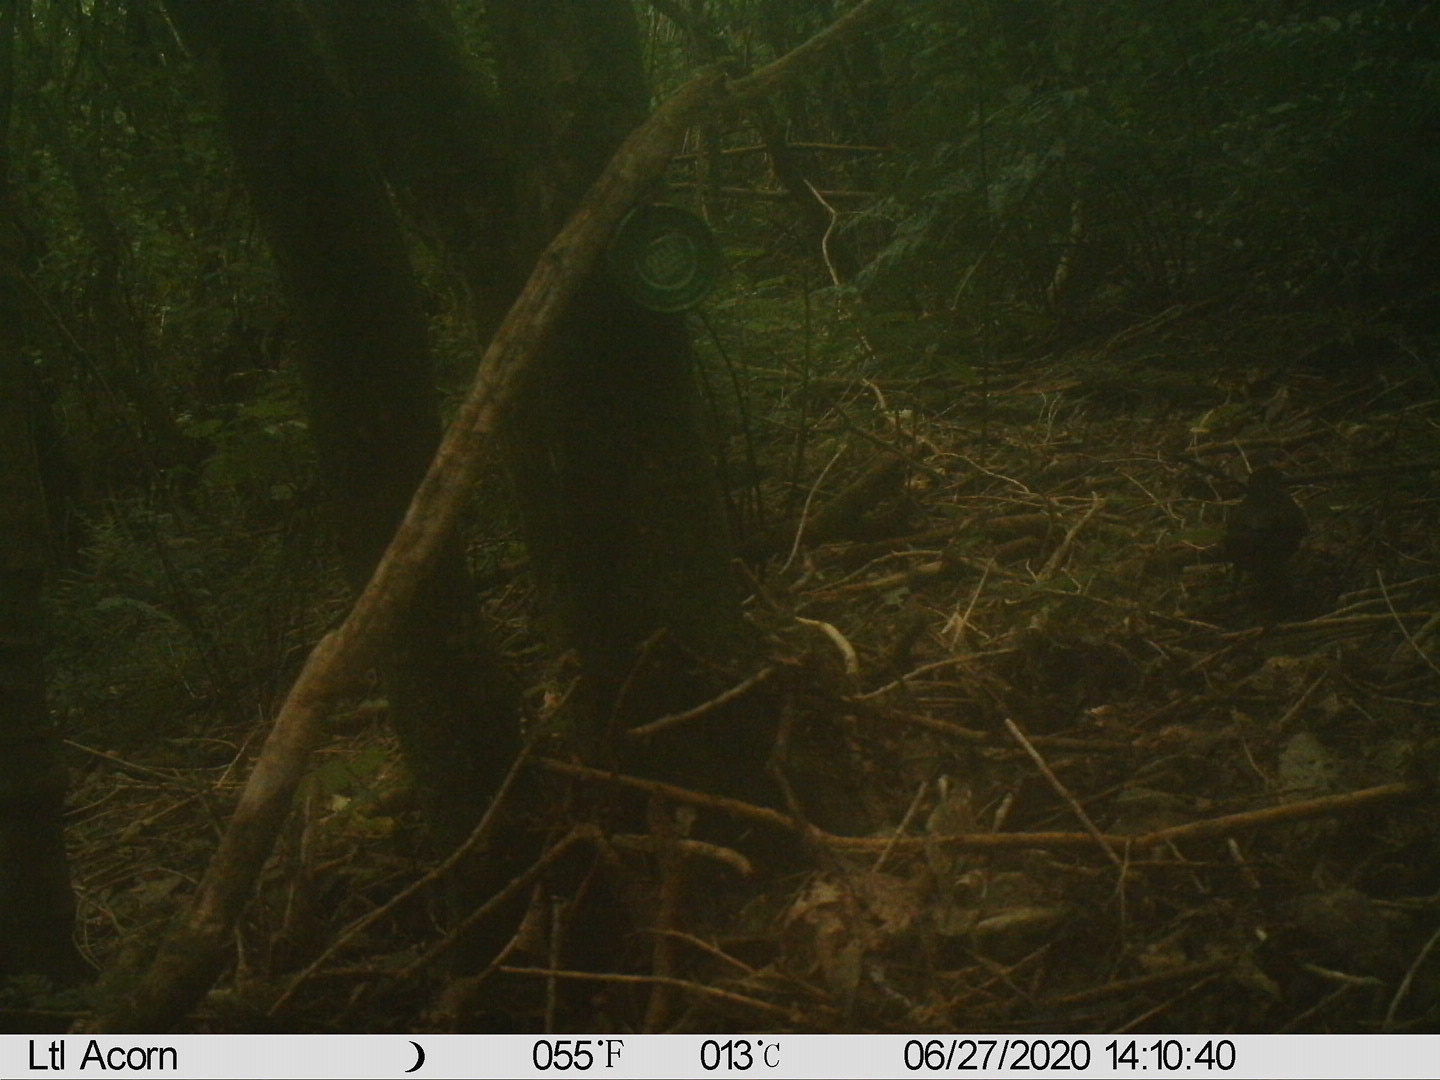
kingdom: Animalia
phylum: Chordata
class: Aves
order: Passeriformes
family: Turdidae
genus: Turdus
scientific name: Turdus merula
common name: Common blackbird
